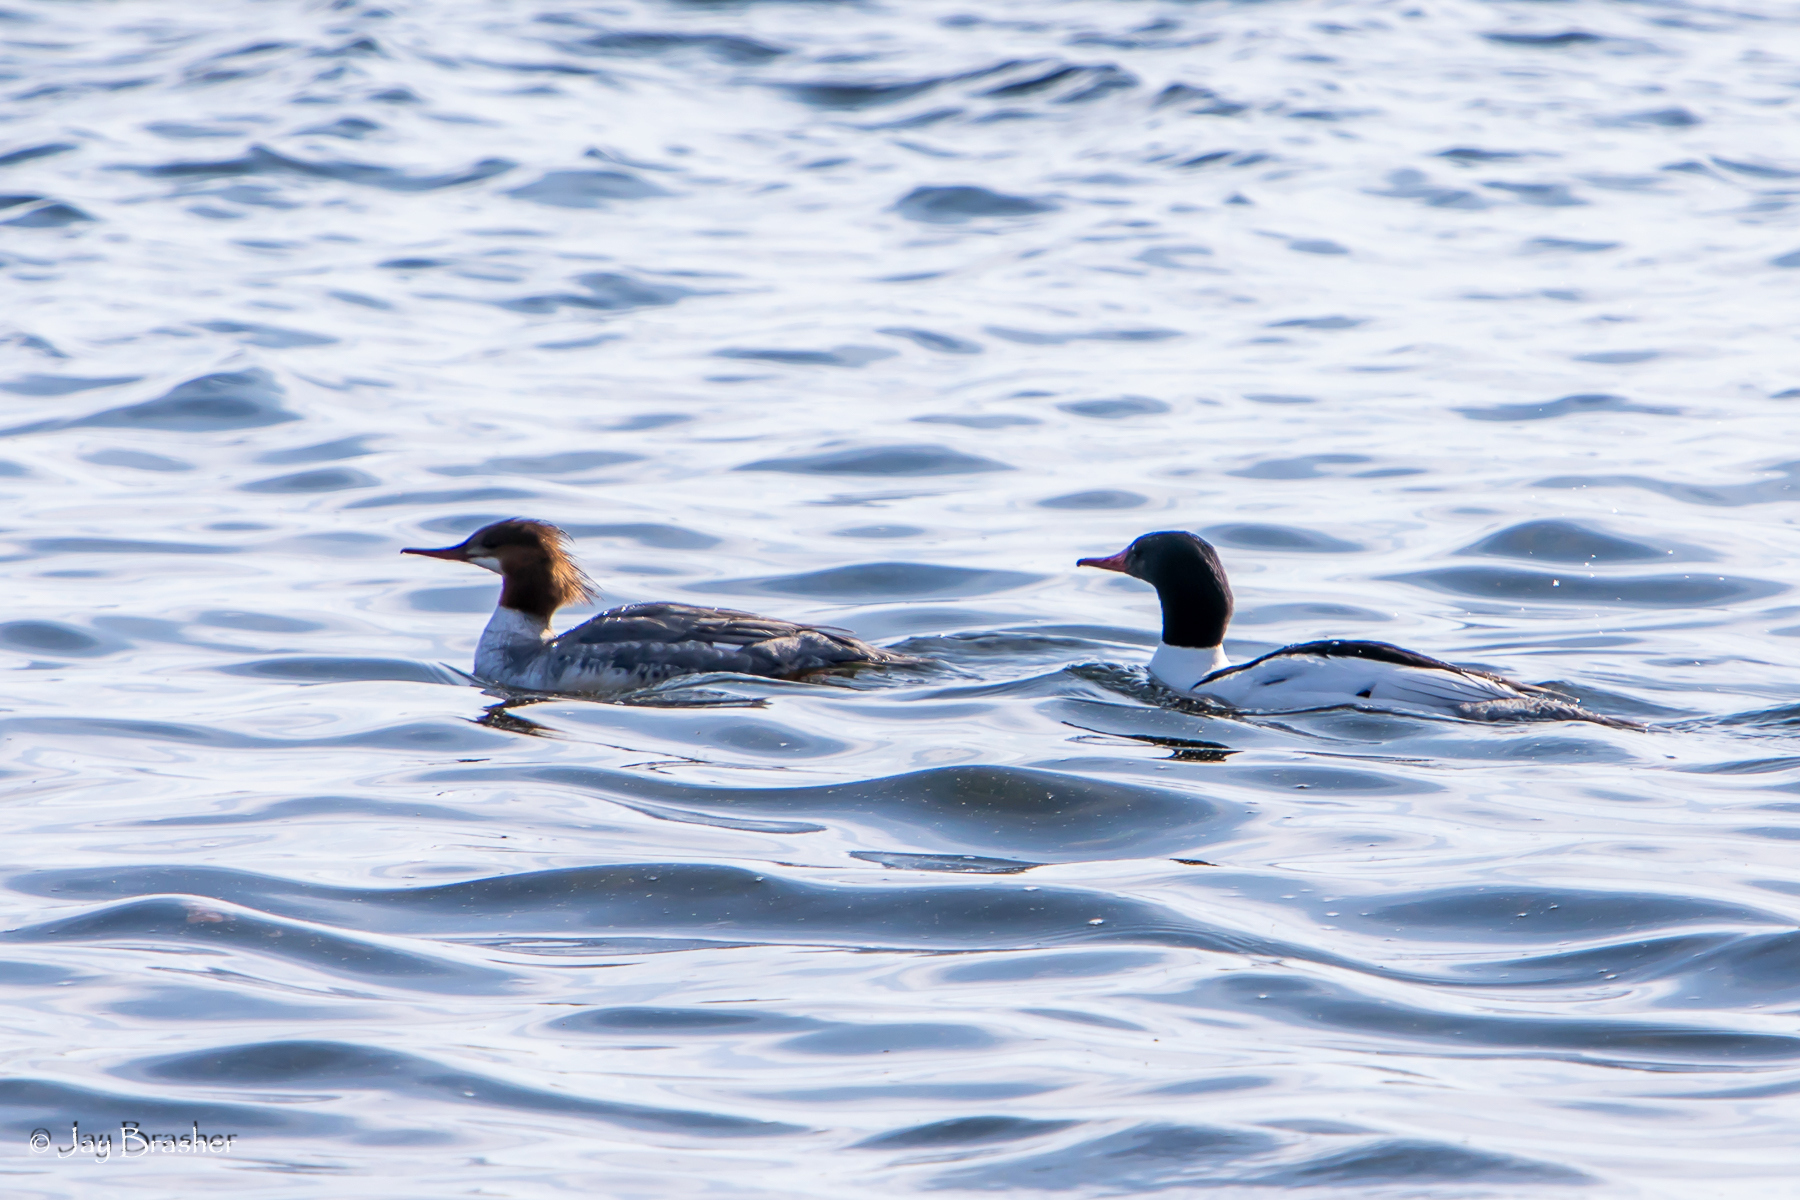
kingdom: Animalia
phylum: Chordata
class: Aves
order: Anseriformes
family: Anatidae
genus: Mergus
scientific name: Mergus merganser
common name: Common merganser
